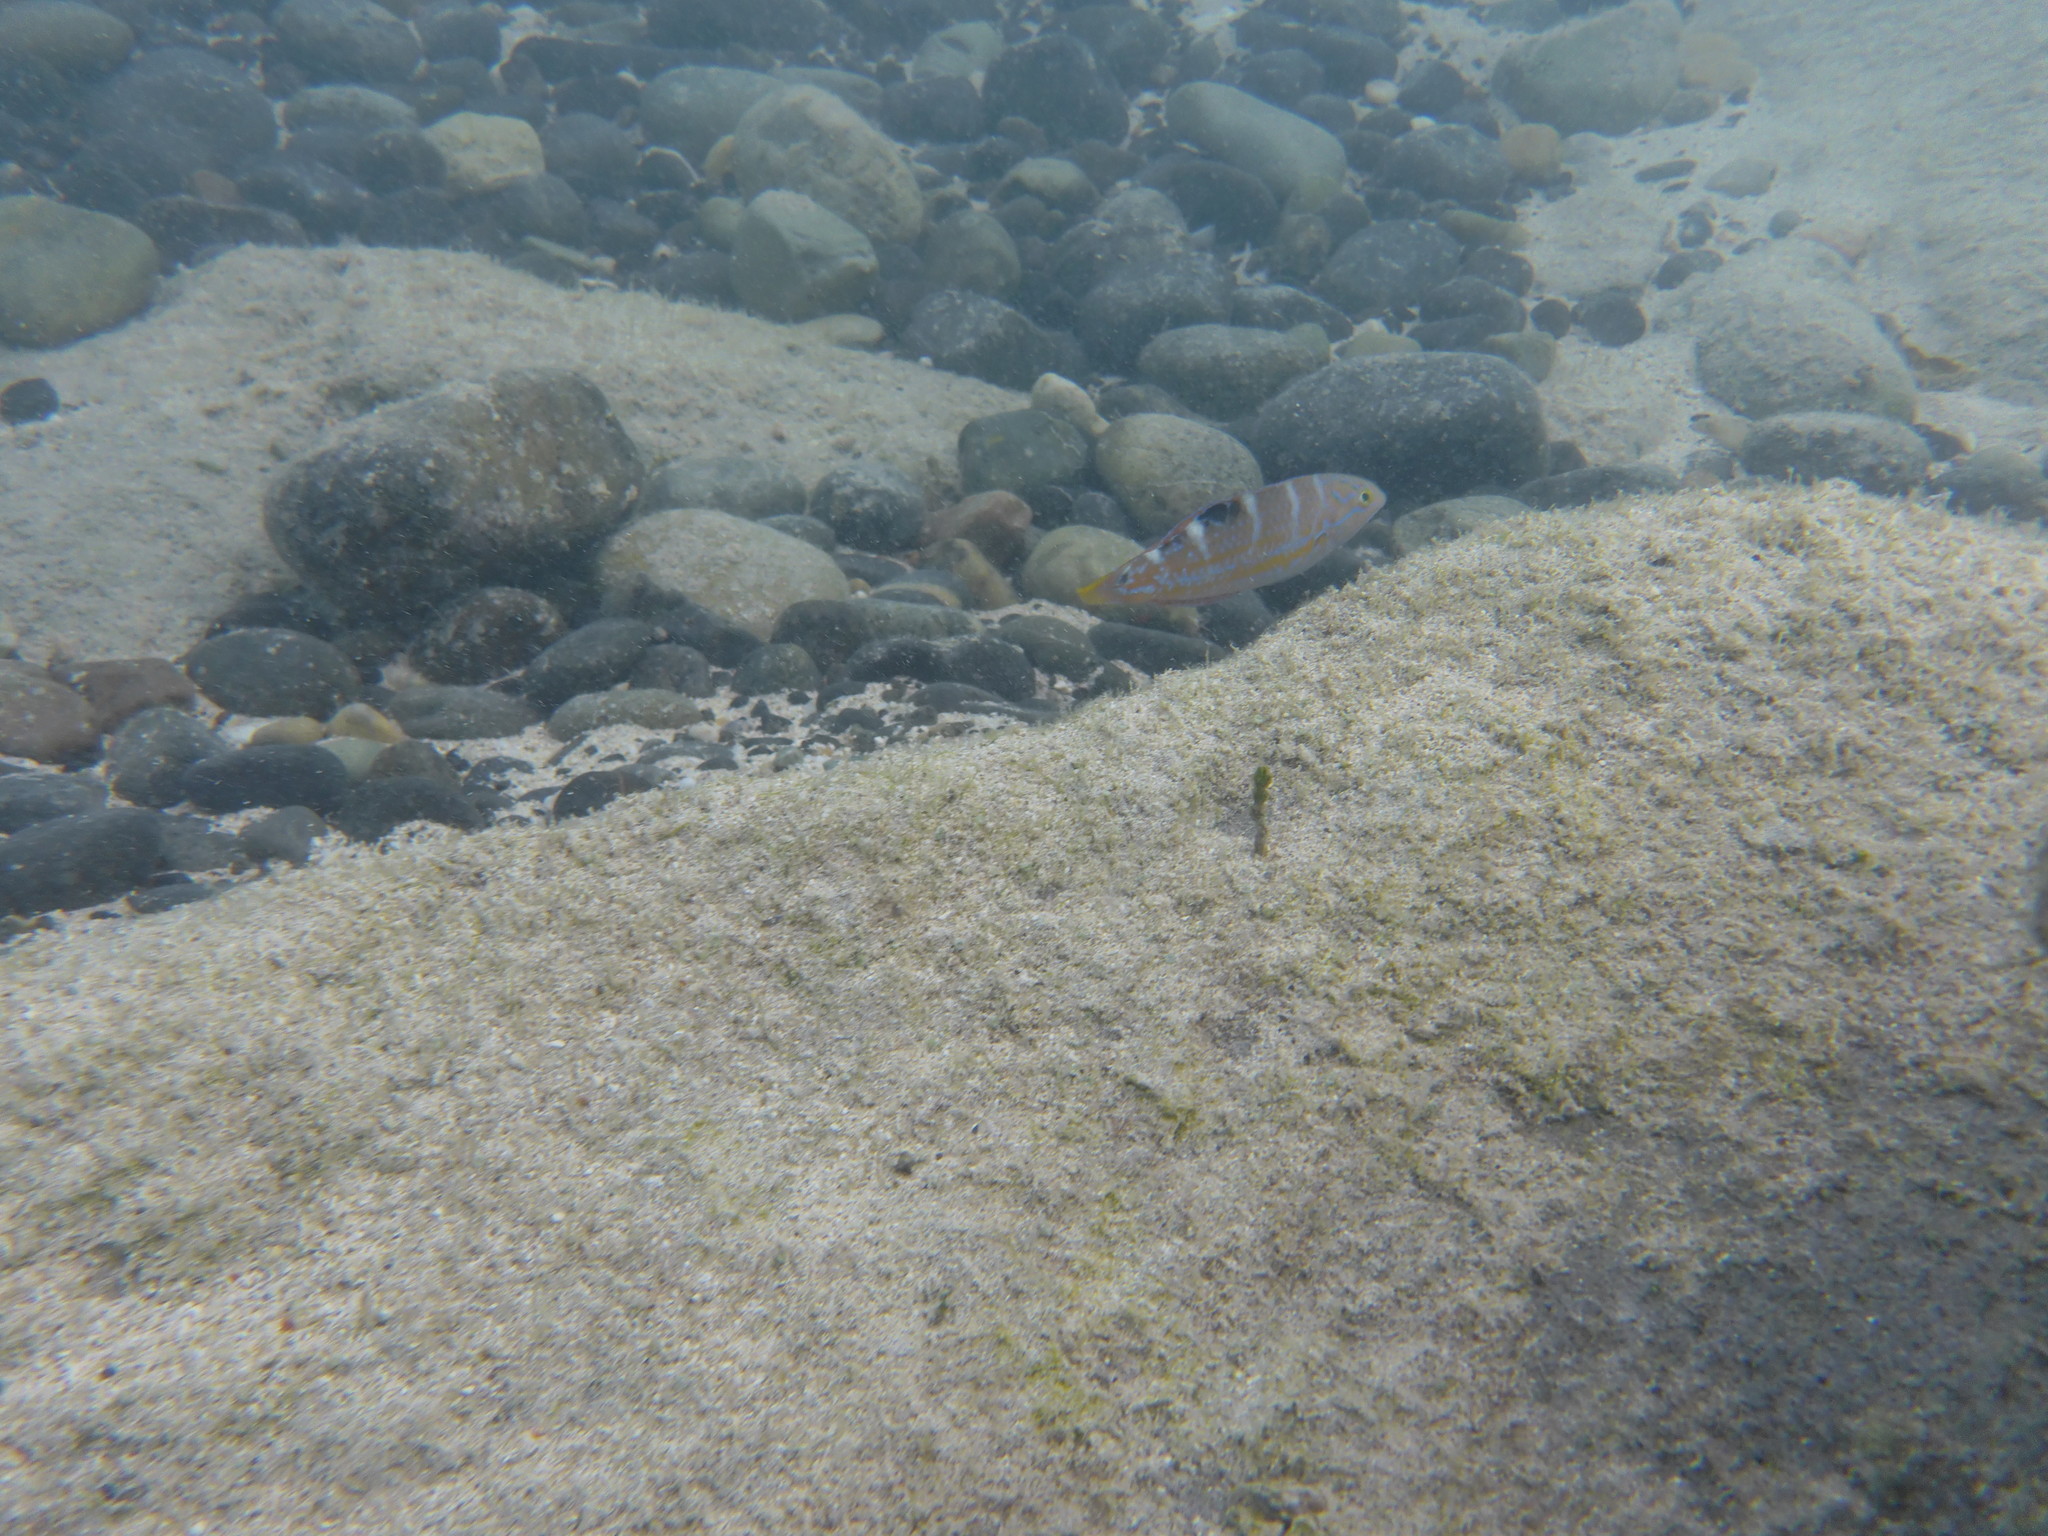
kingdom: Animalia
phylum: Chordata
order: Perciformes
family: Labridae
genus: Halichoeres
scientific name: Halichoeres radiatus
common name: Puddingwife
